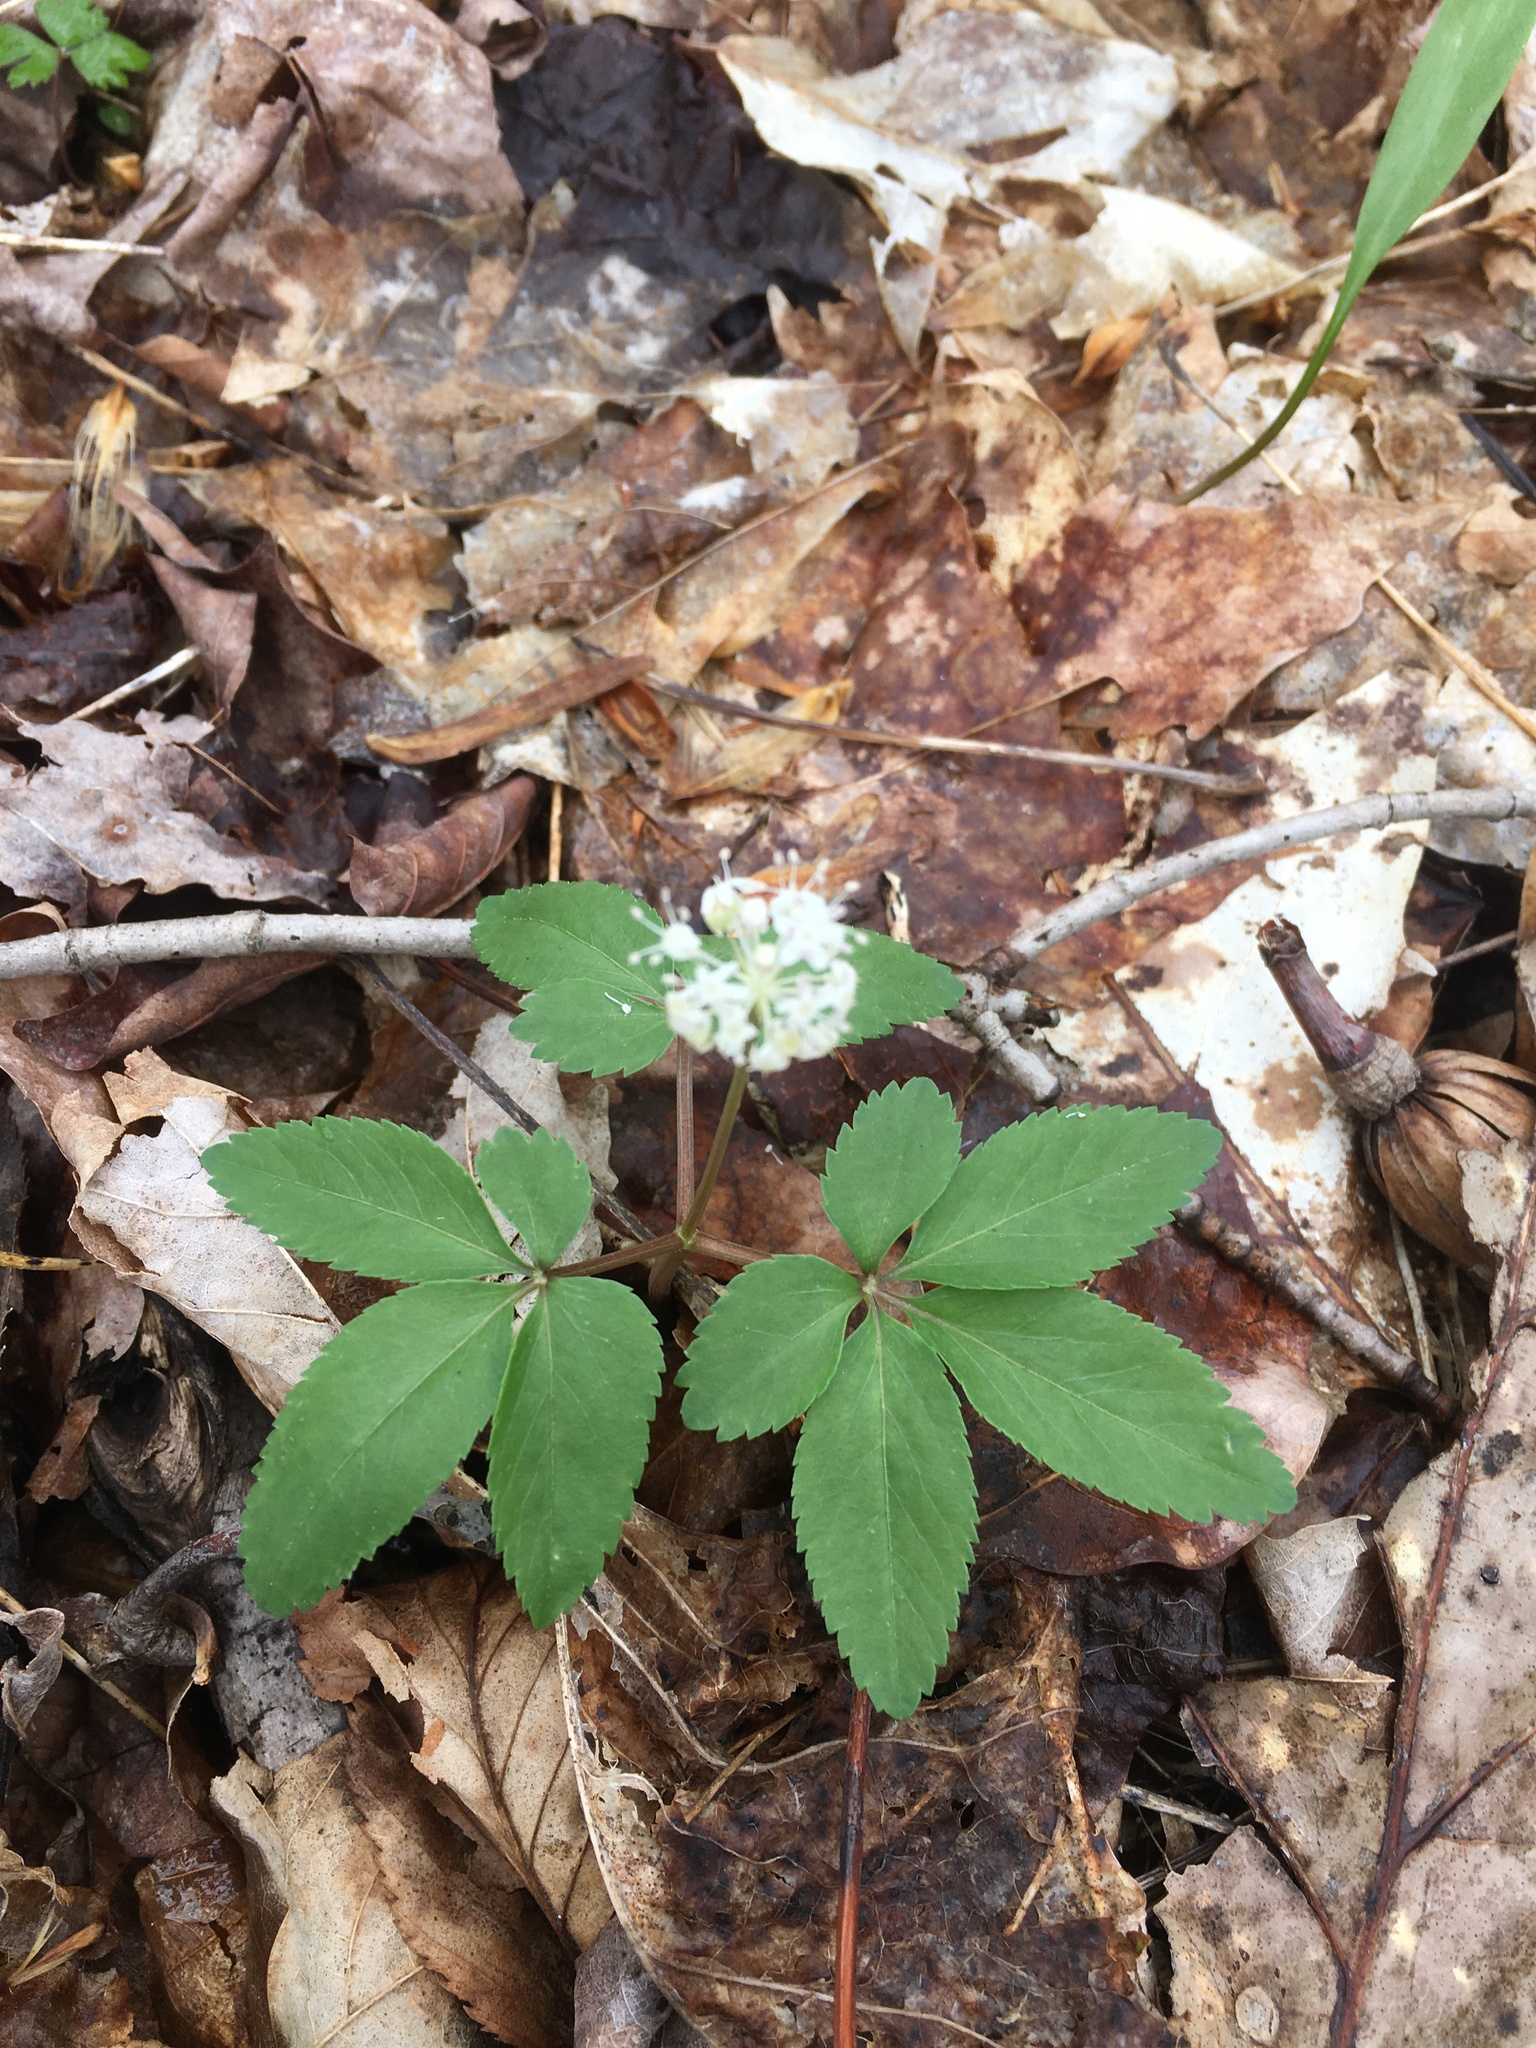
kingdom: Plantae
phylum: Tracheophyta
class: Magnoliopsida
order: Apiales
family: Araliaceae
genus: Panax
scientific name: Panax trifolius
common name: Dwarf ginseng
